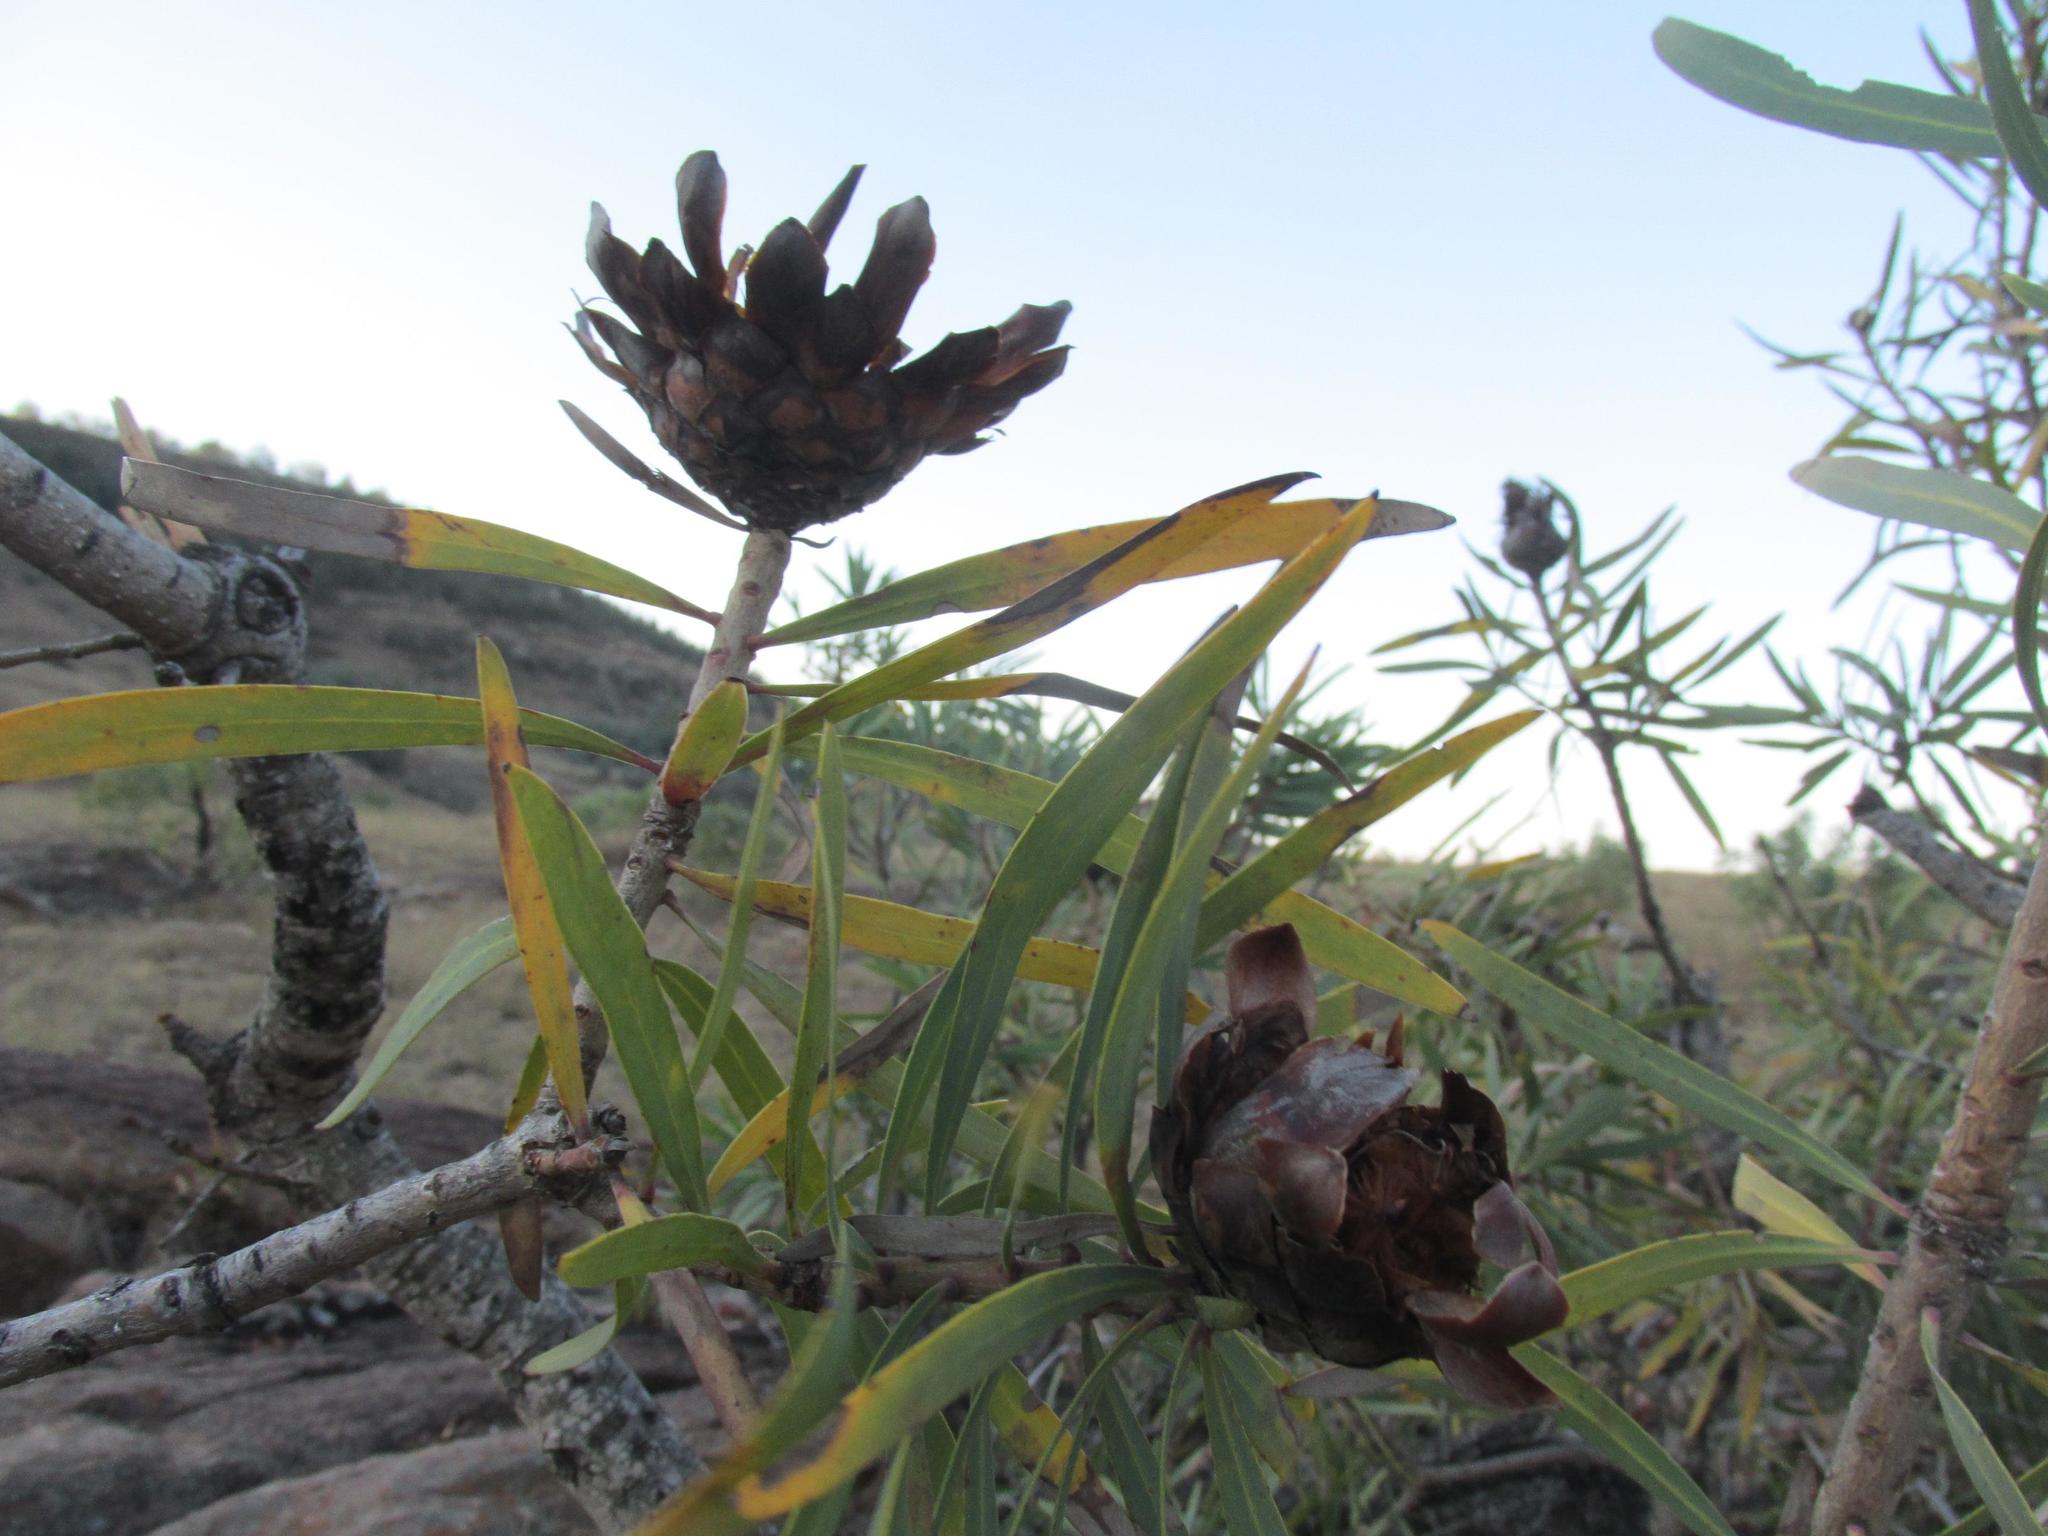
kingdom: Plantae
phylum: Tracheophyta
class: Magnoliopsida
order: Proteales
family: Proteaceae
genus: Protea
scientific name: Protea caffra
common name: Common sugarbush
